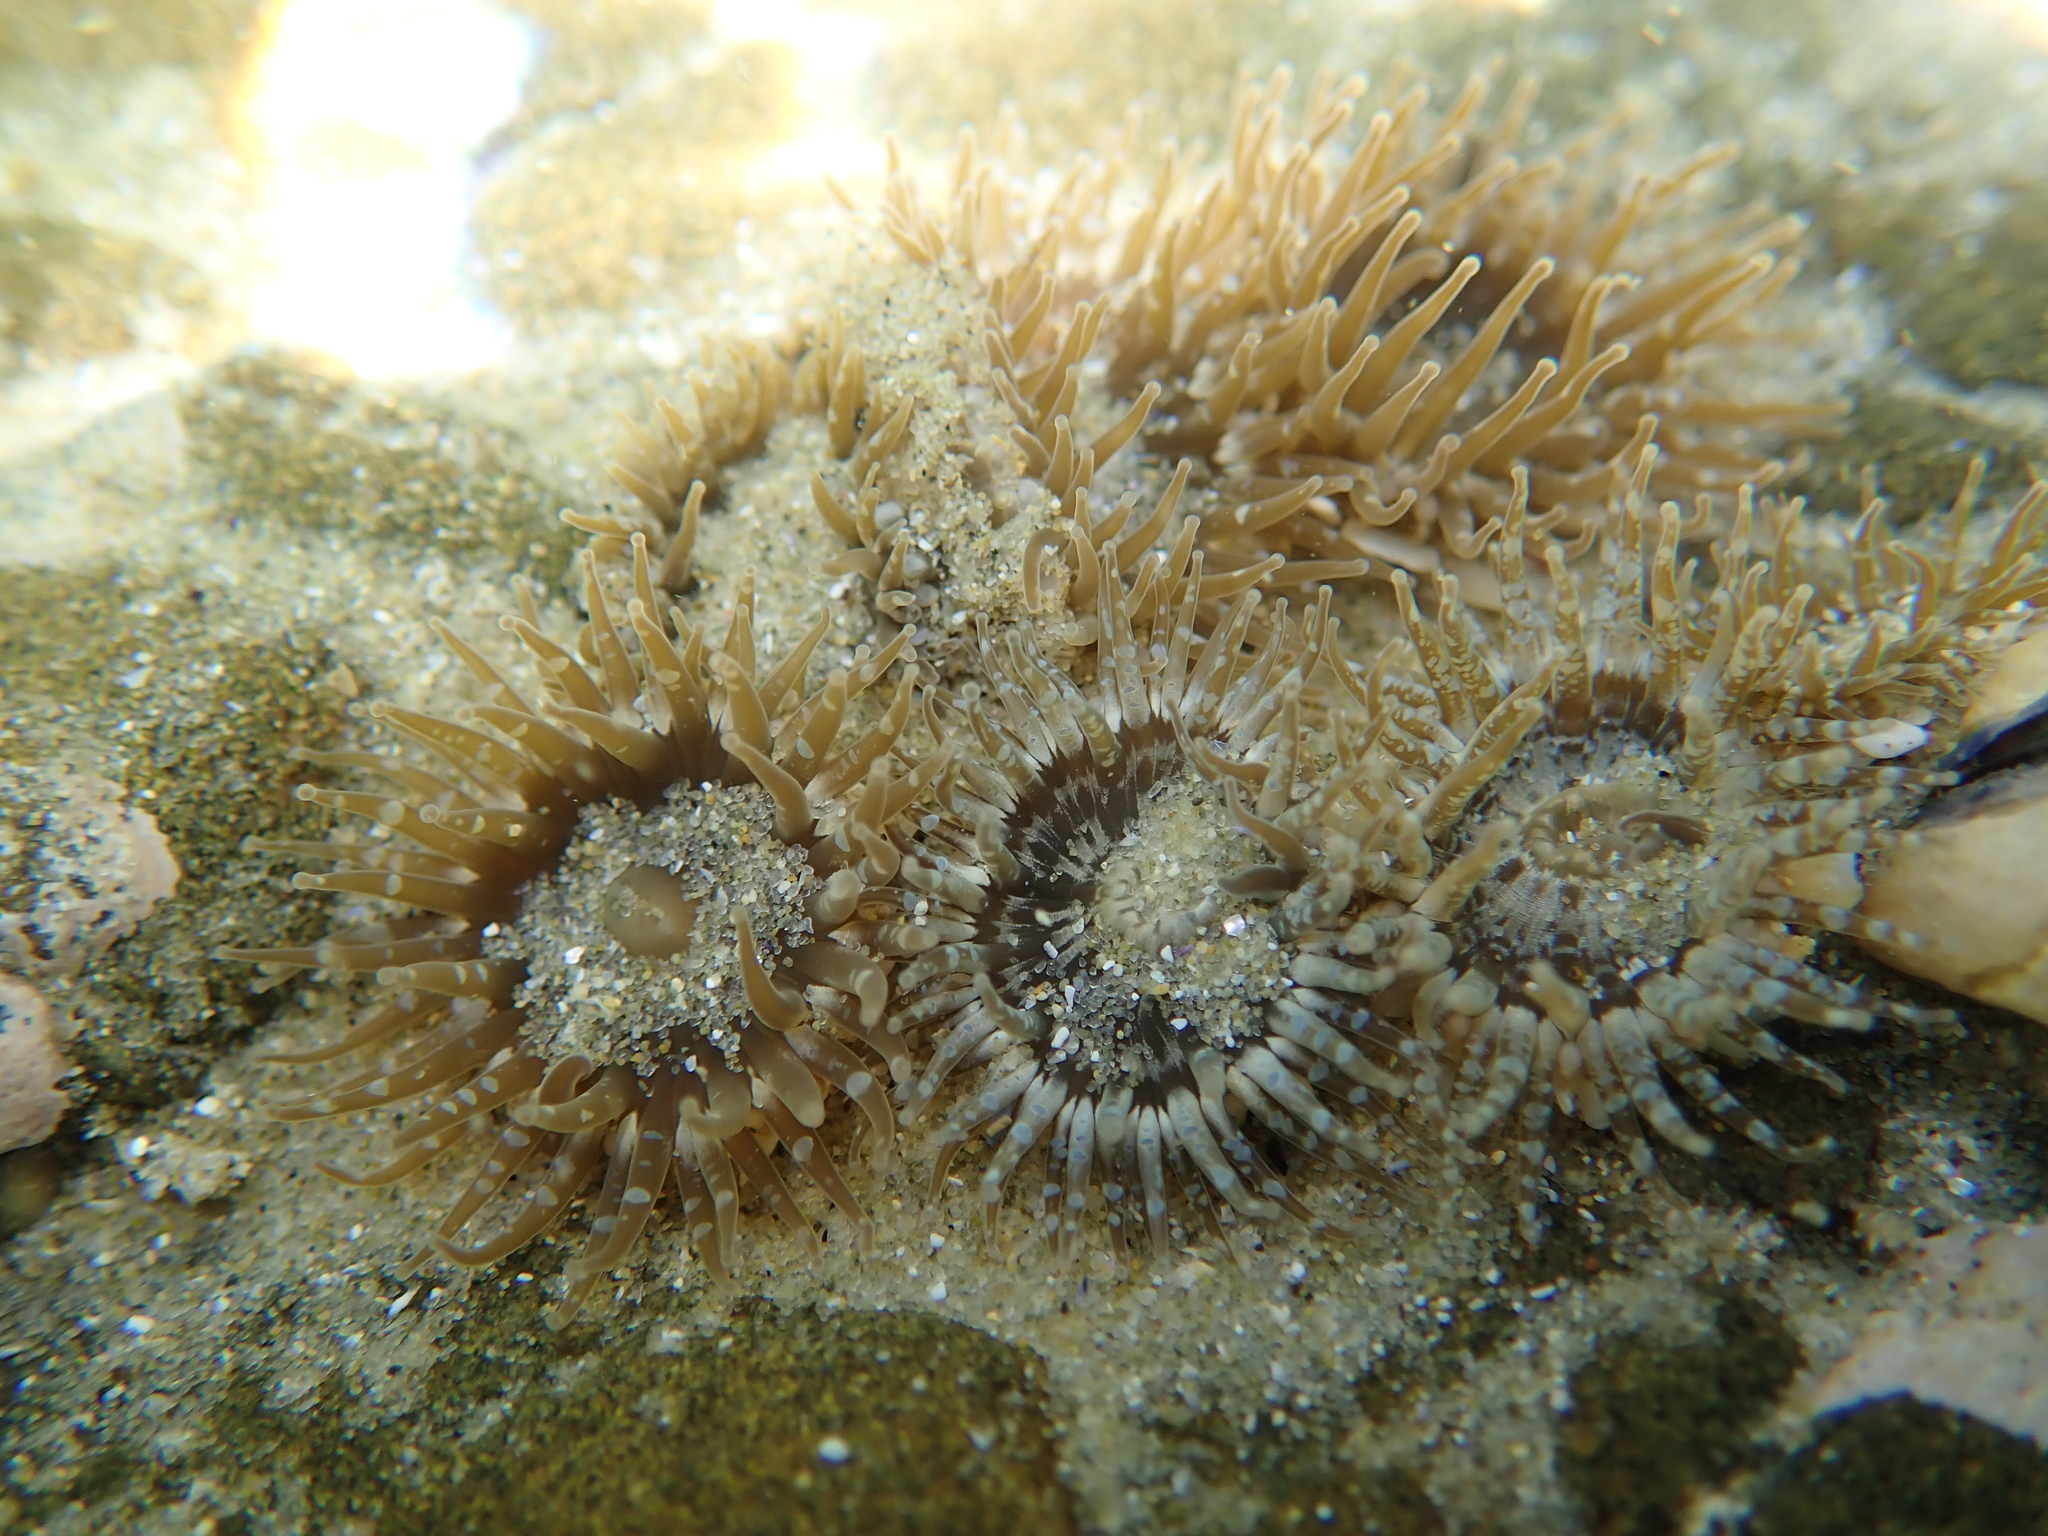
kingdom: Animalia
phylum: Cnidaria
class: Anthozoa
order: Actiniaria
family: Actiniidae
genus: Anthopleura
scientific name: Anthopleura hermaphroditica
